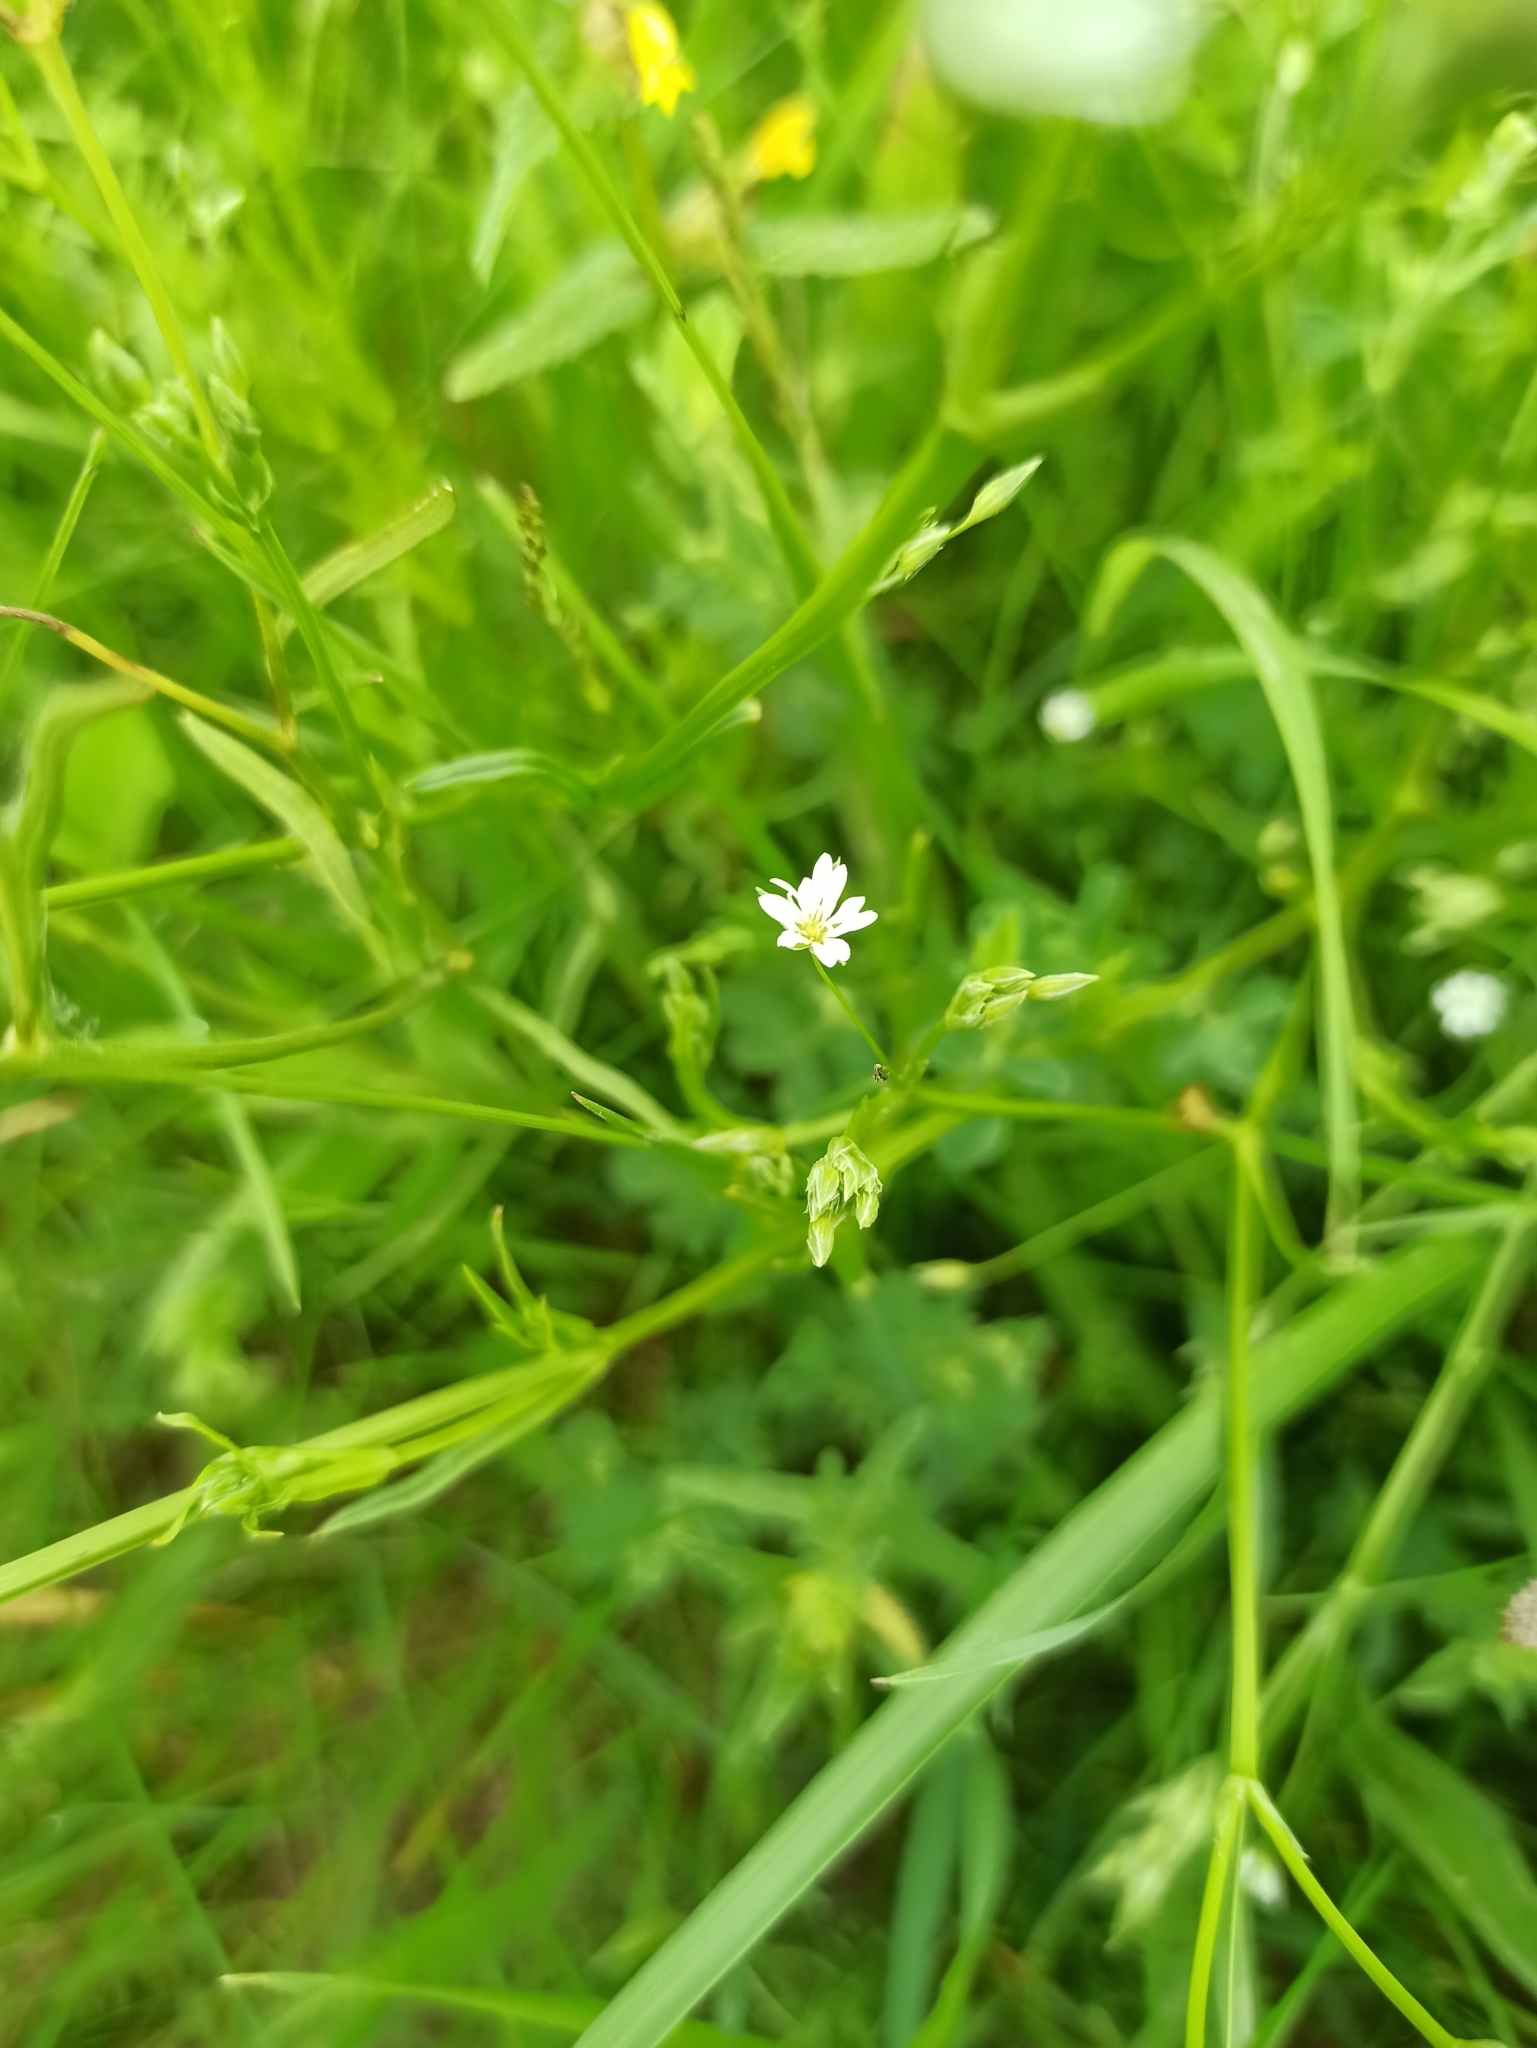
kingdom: Plantae
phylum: Tracheophyta
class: Magnoliopsida
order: Caryophyllales
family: Caryophyllaceae
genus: Stellaria
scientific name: Stellaria graminea
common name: Grass-like starwort
